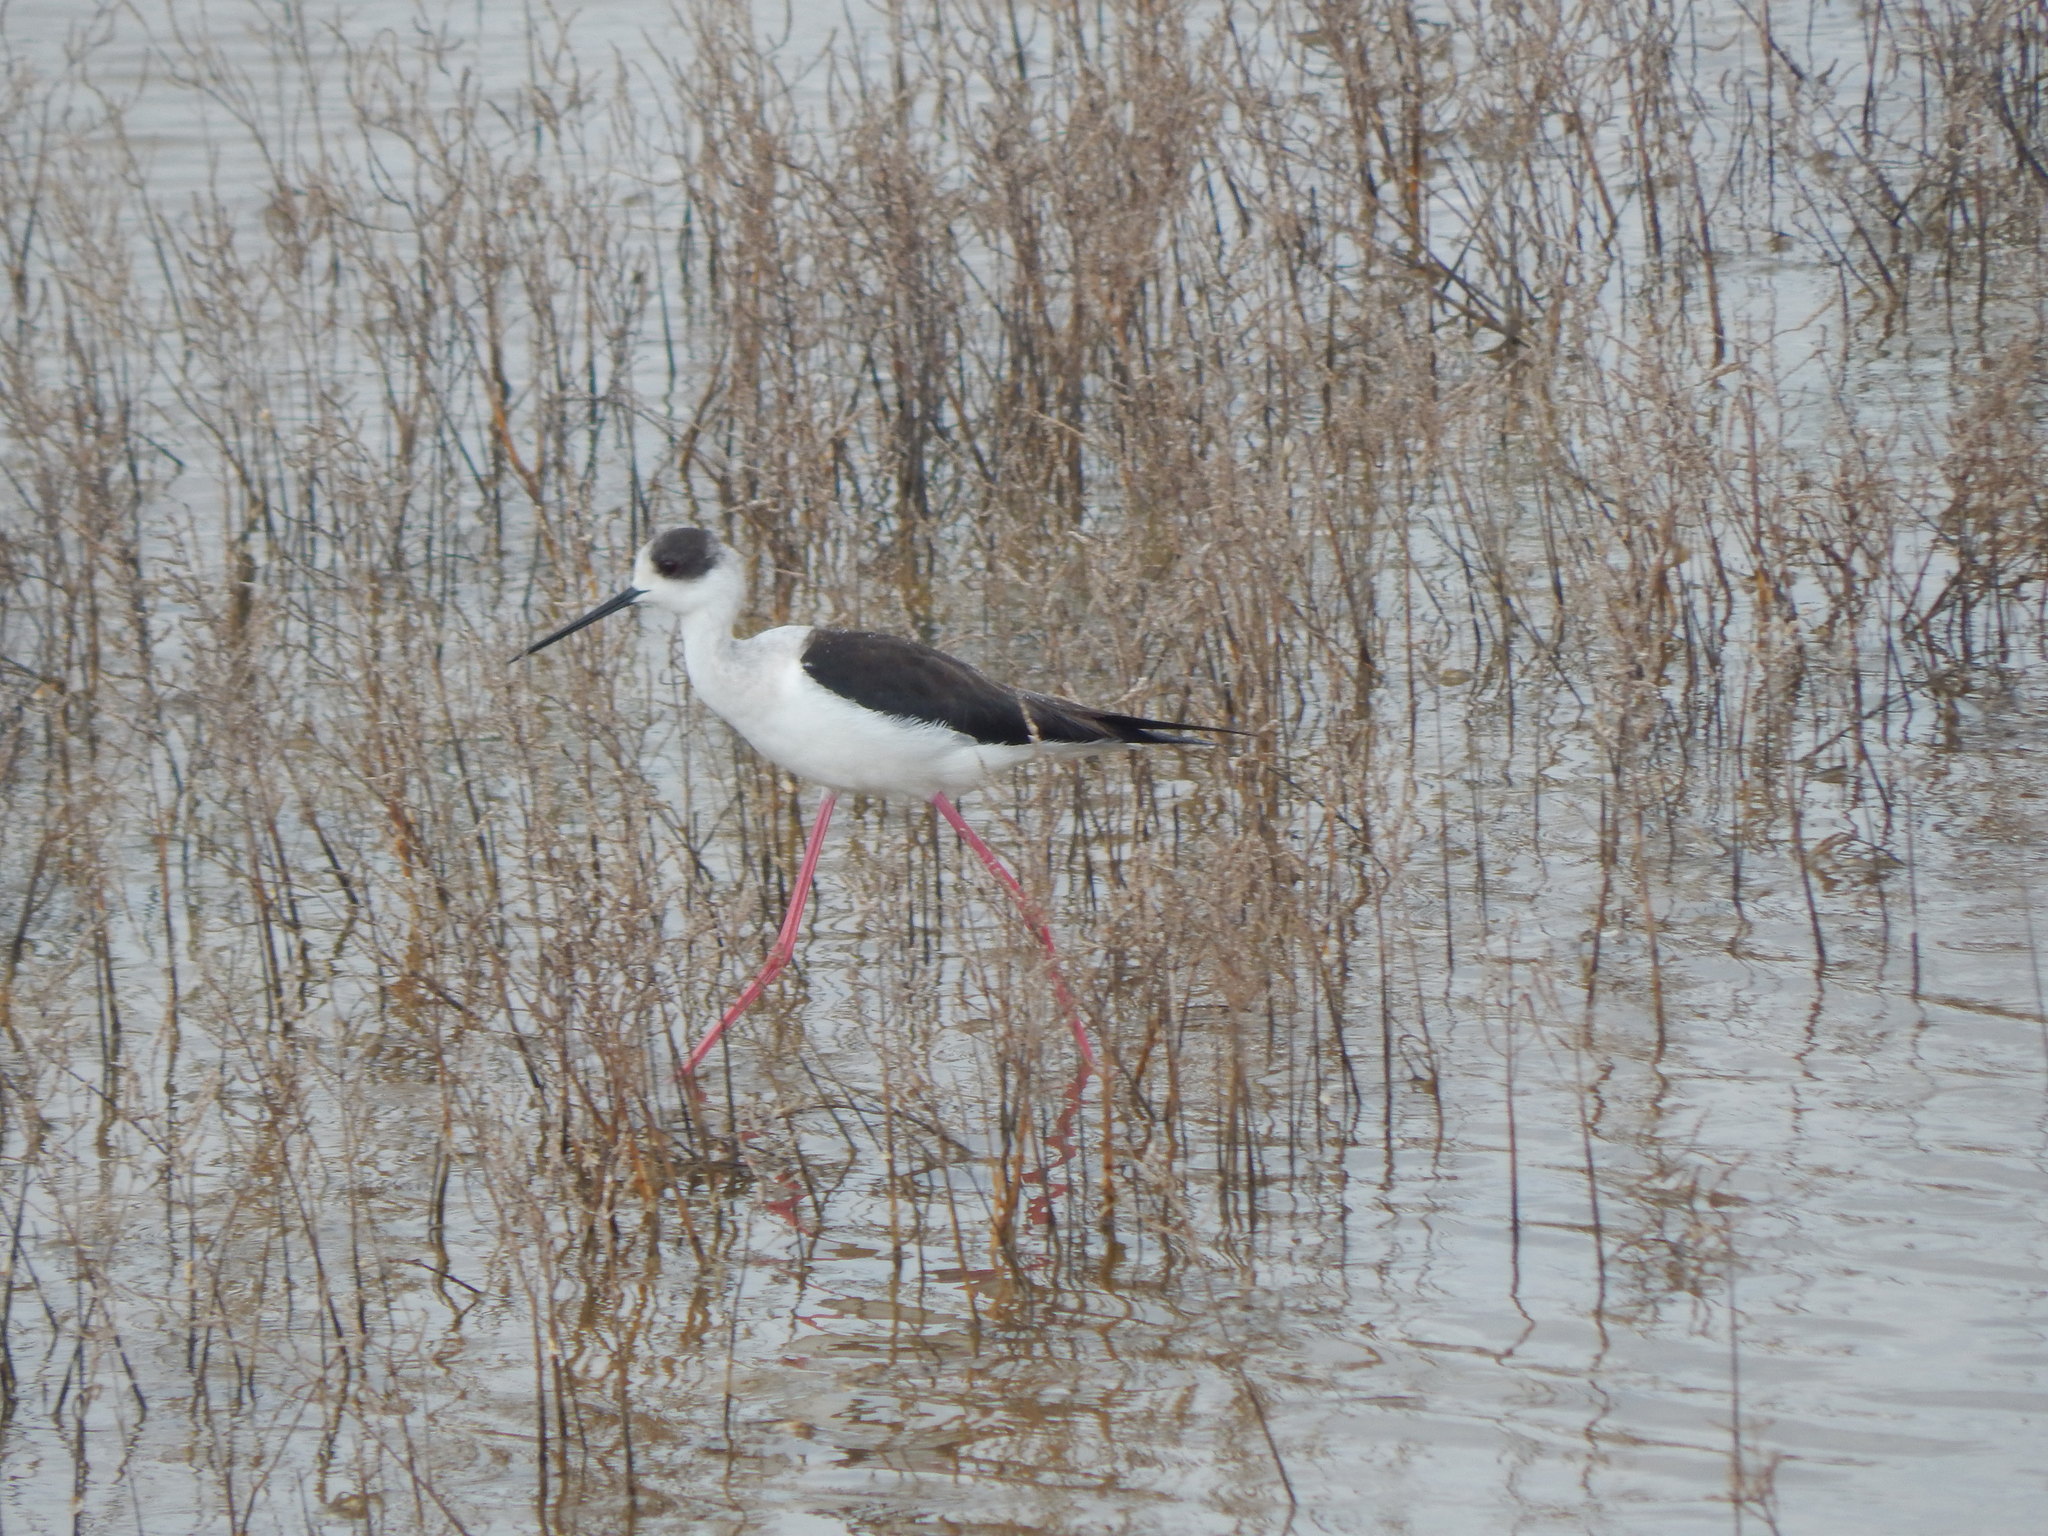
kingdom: Animalia
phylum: Chordata
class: Aves
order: Charadriiformes
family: Recurvirostridae
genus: Himantopus
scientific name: Himantopus himantopus
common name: Black-winged stilt
